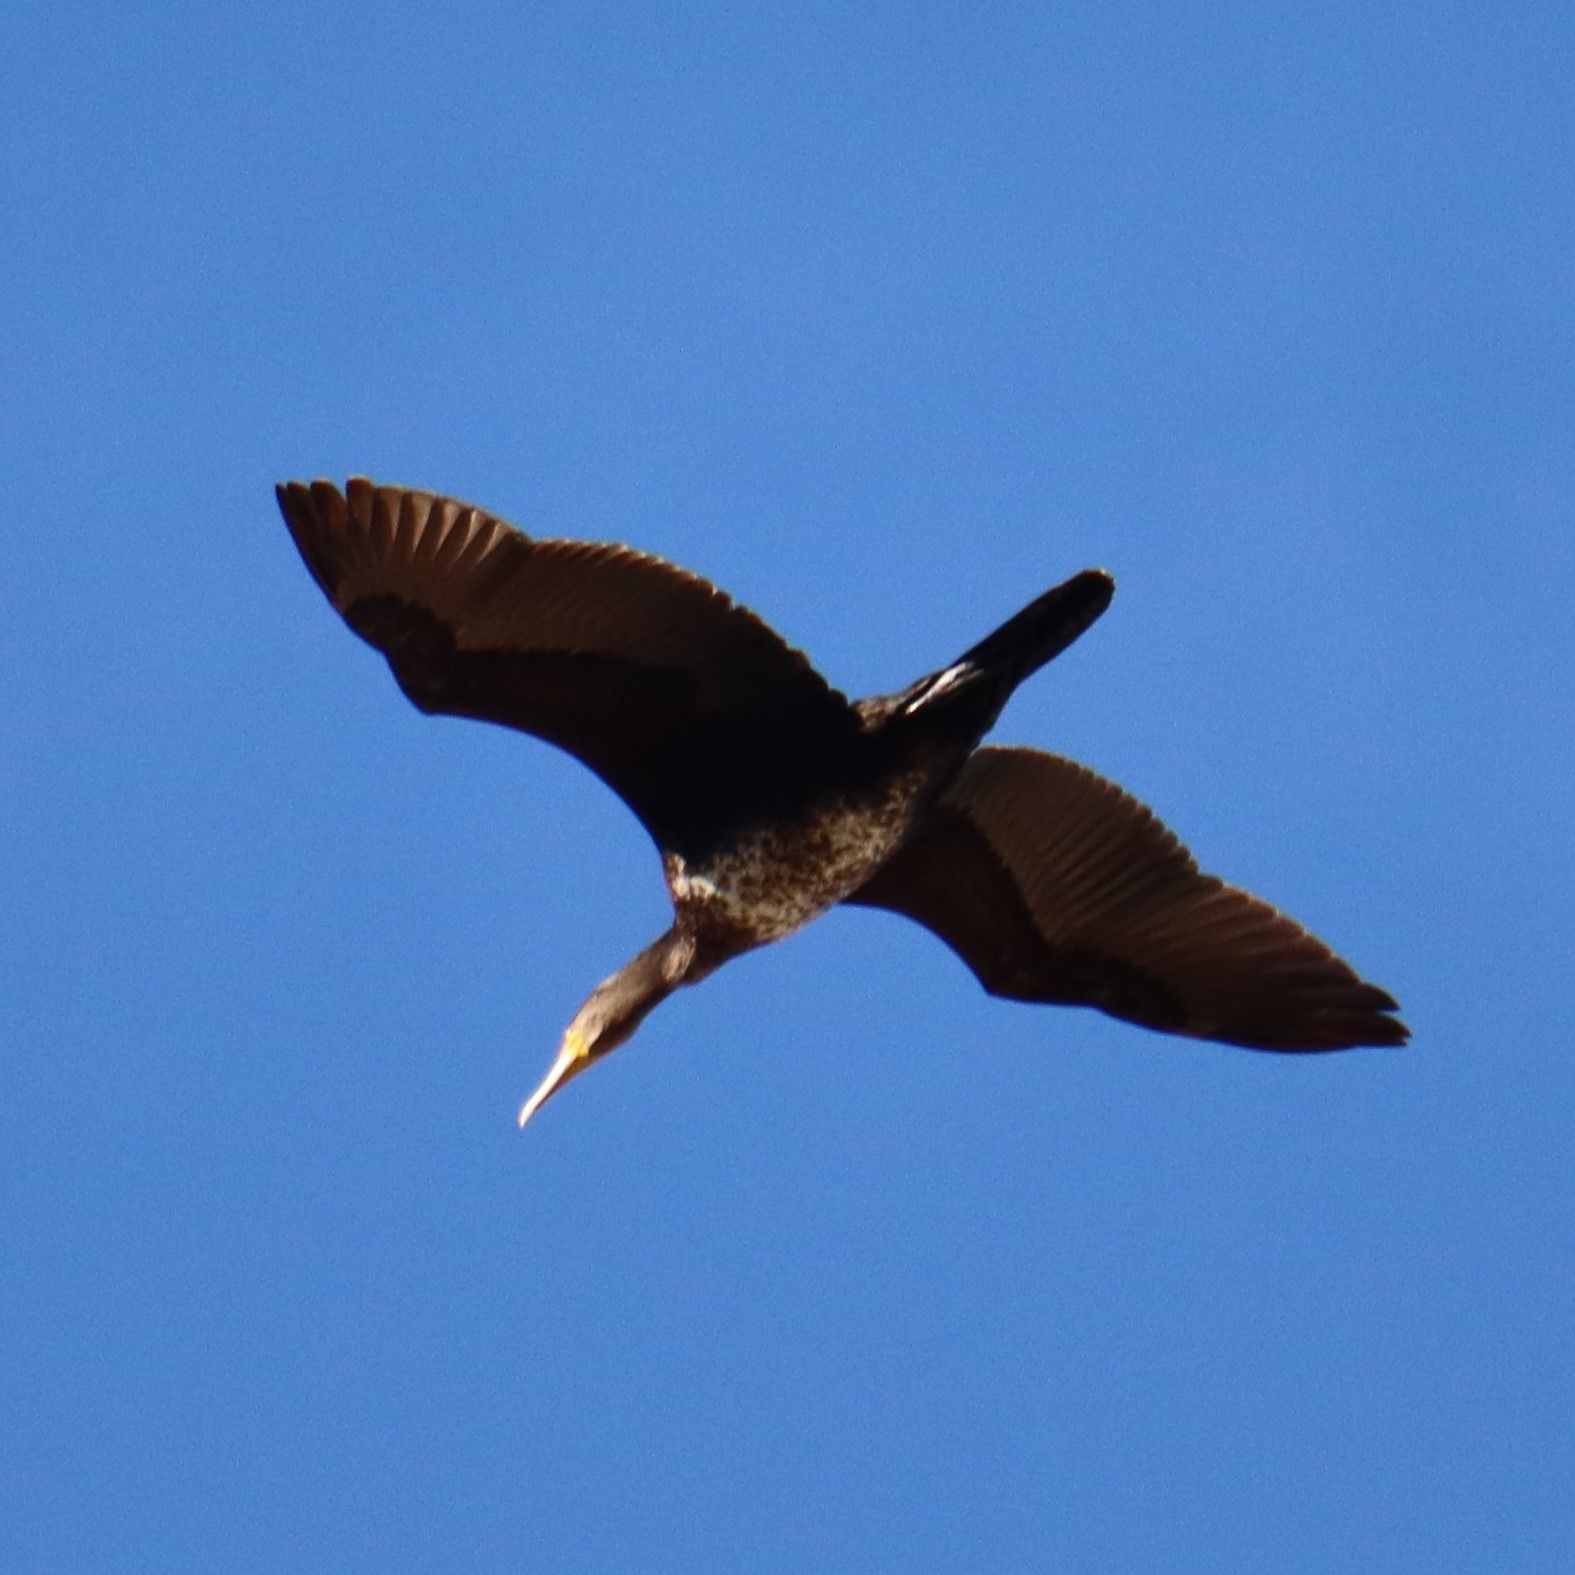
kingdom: Animalia
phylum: Chordata
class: Aves
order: Suliformes
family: Phalacrocoracidae
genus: Phalacrocorax
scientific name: Phalacrocorax carbo
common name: Great cormorant
